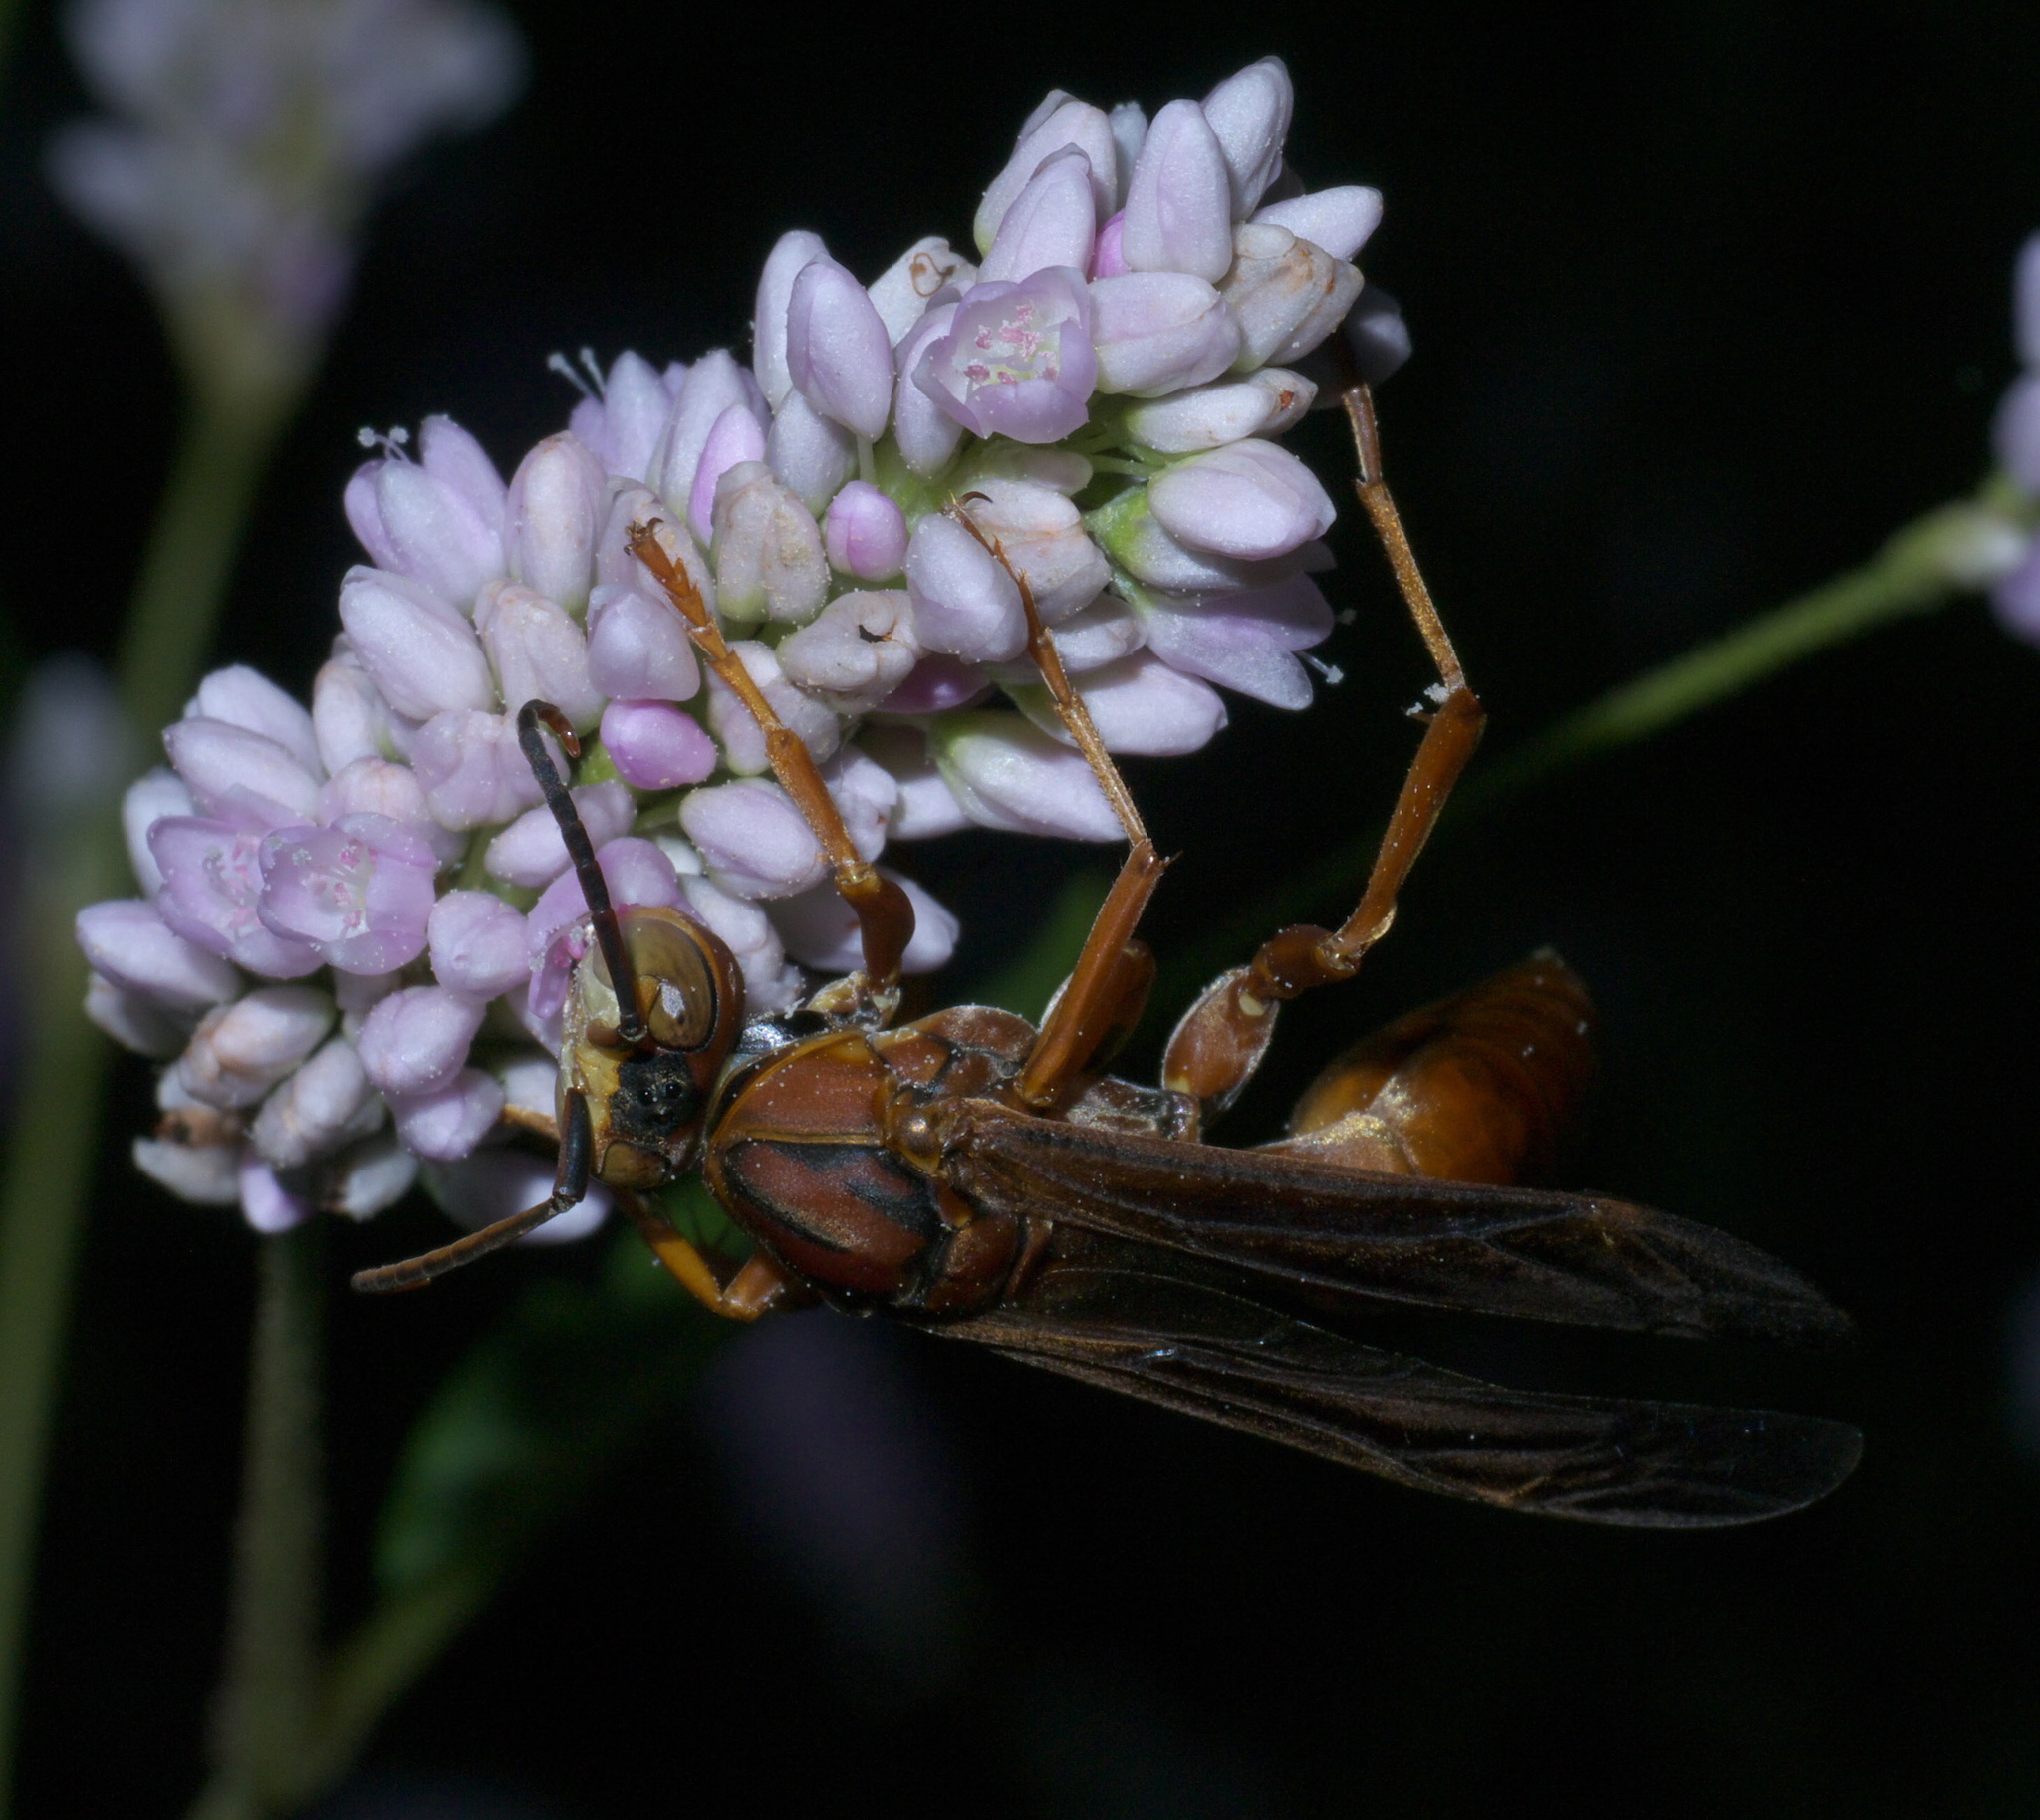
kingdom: Animalia
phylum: Arthropoda
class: Insecta
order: Hymenoptera
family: Vespidae
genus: Fuscopolistes
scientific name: Fuscopolistes
